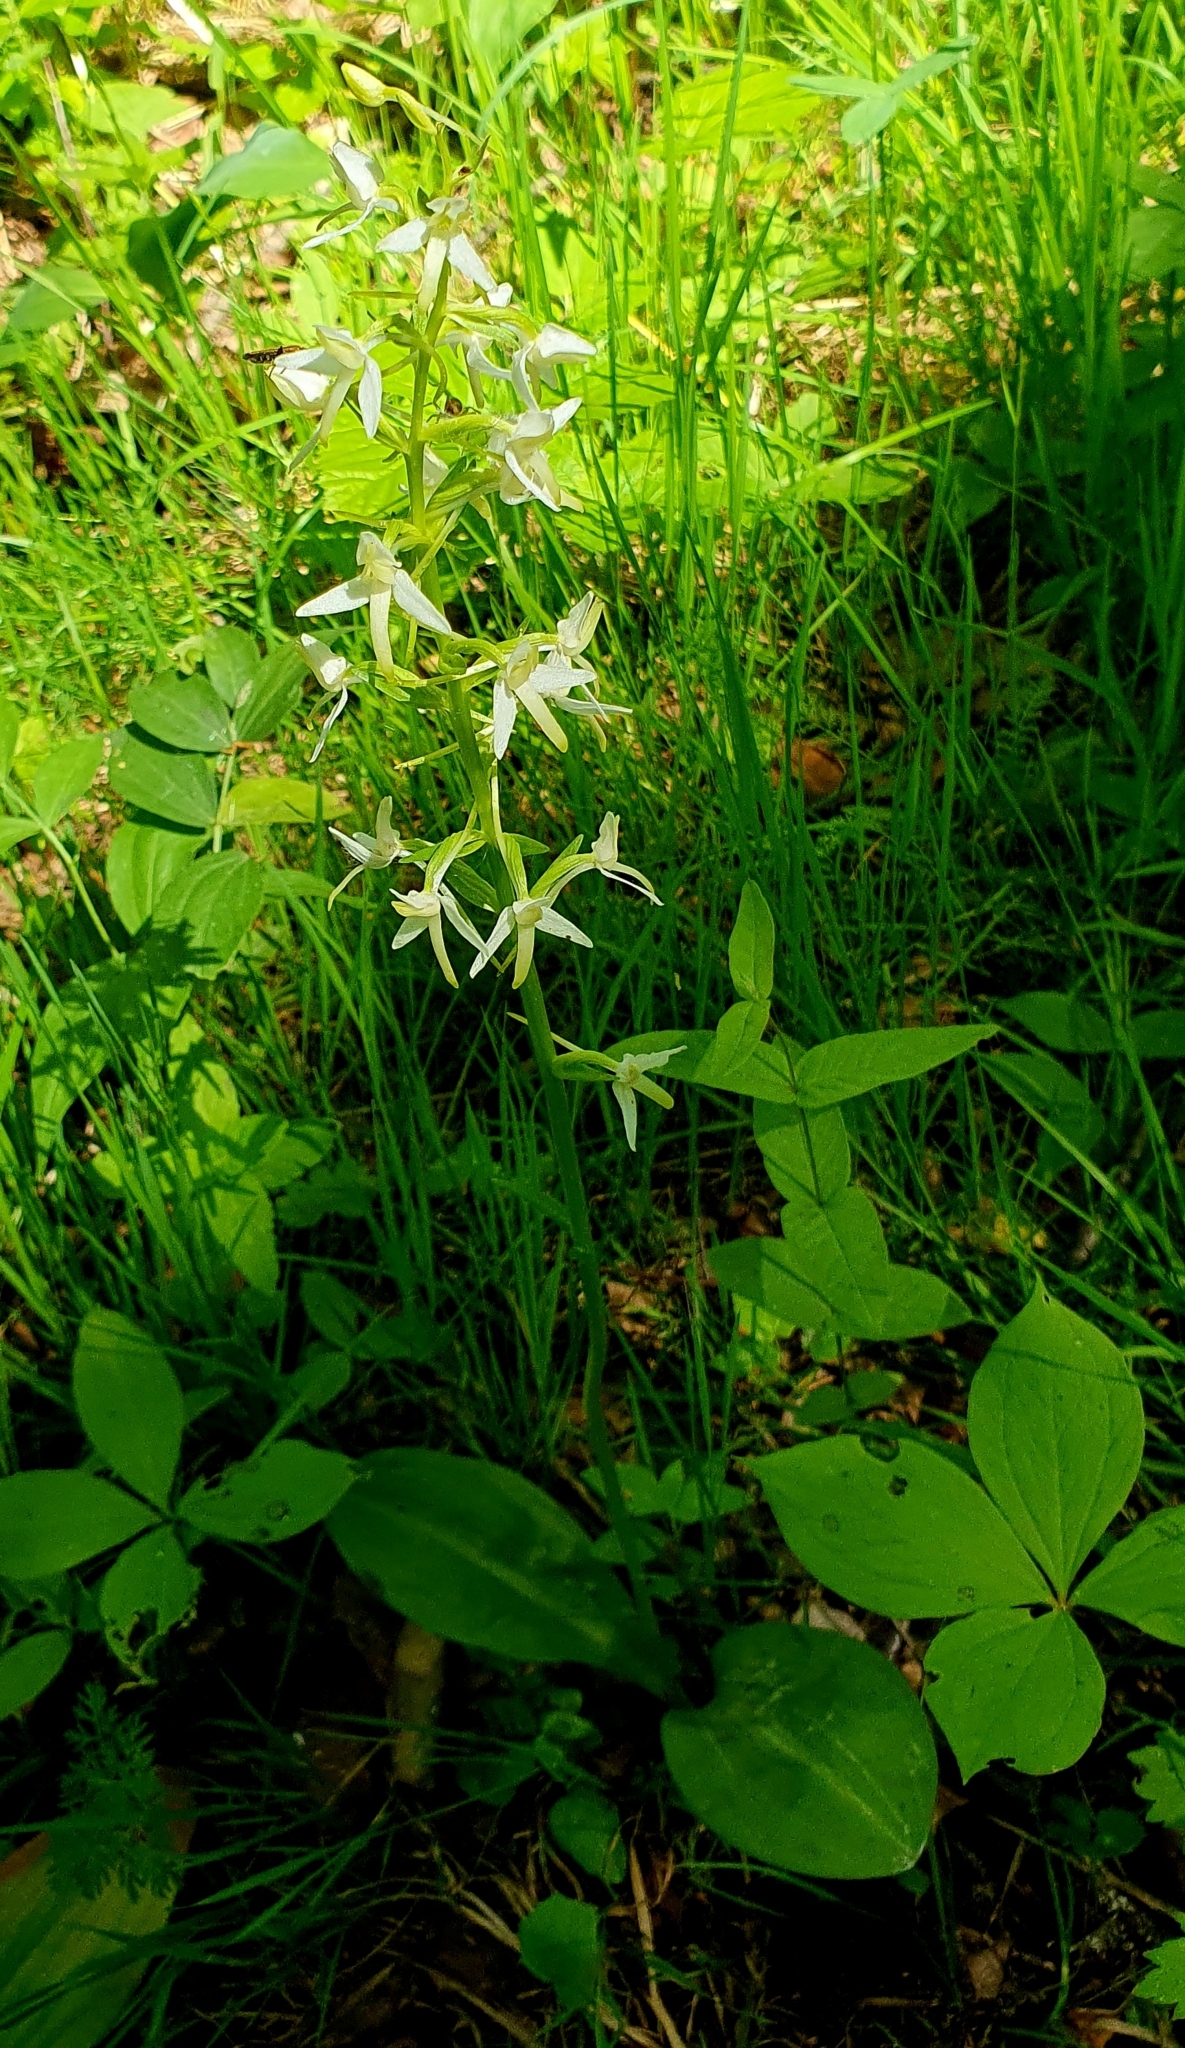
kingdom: Plantae
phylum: Tracheophyta
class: Liliopsida
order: Asparagales
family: Orchidaceae
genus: Platanthera
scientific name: Platanthera bifolia
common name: Lesser butterfly-orchid
